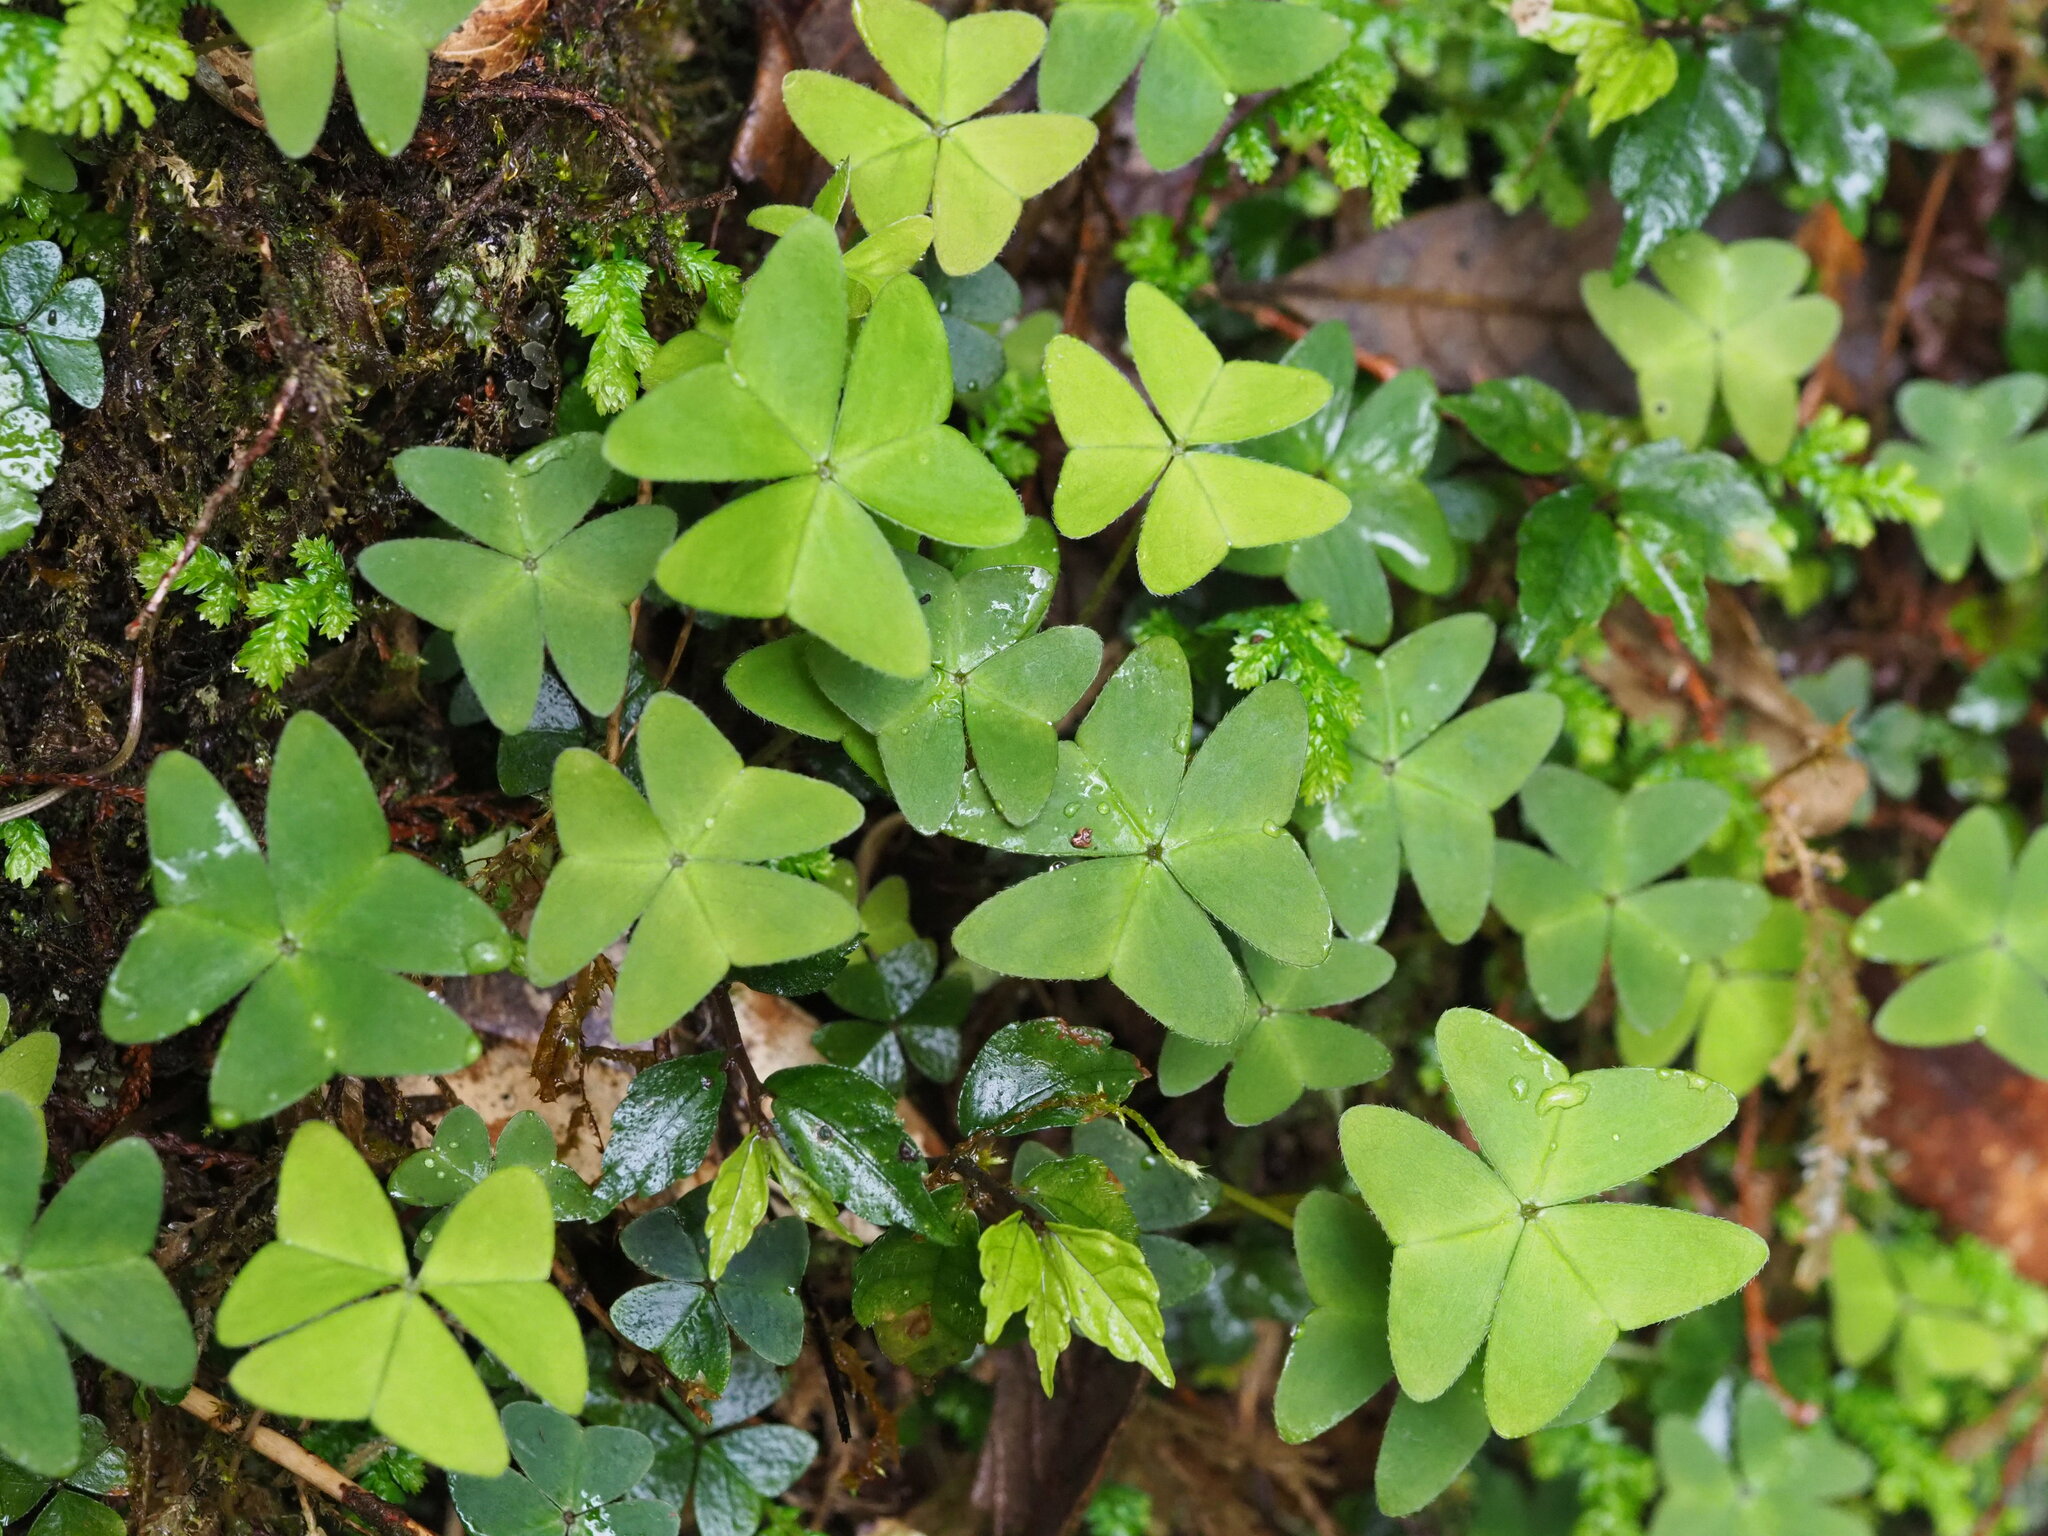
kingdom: Plantae
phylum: Tracheophyta
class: Magnoliopsida
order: Oxalidales
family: Oxalidaceae
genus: Oxalis
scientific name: Oxalis griffithii
